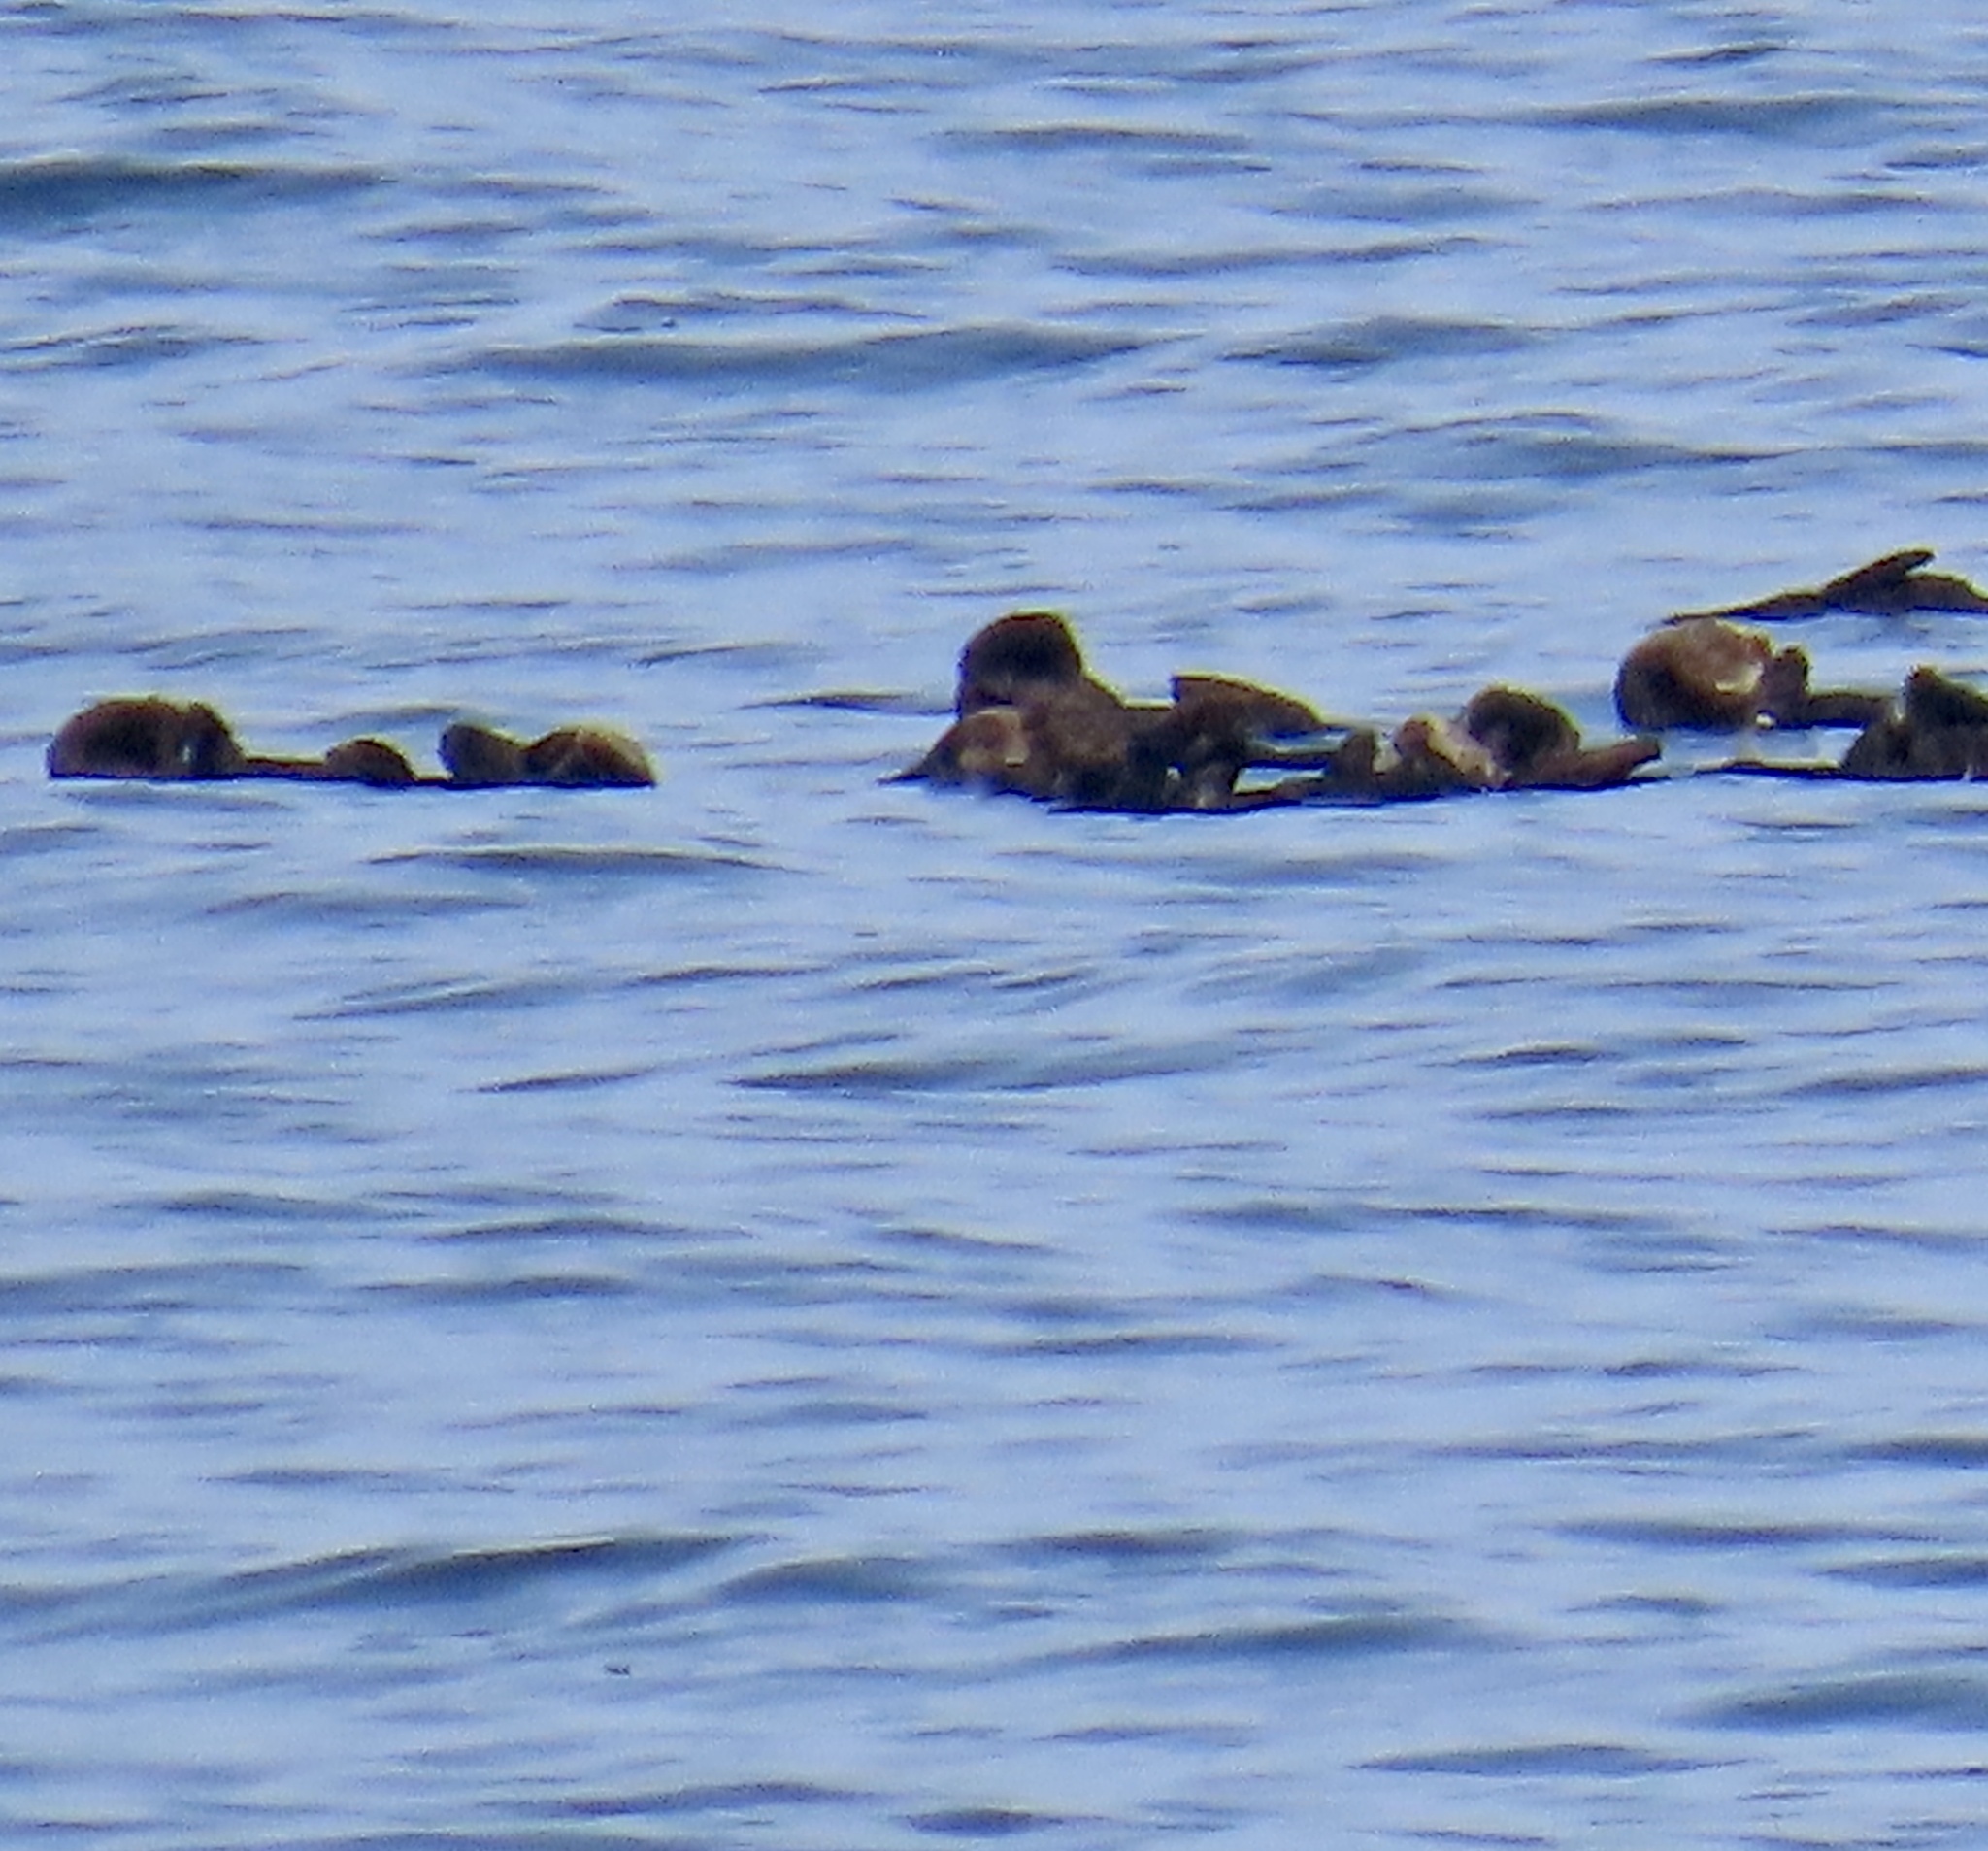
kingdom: Animalia
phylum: Chordata
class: Mammalia
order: Carnivora
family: Mustelidae
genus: Enhydra
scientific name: Enhydra lutris
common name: Sea otter
